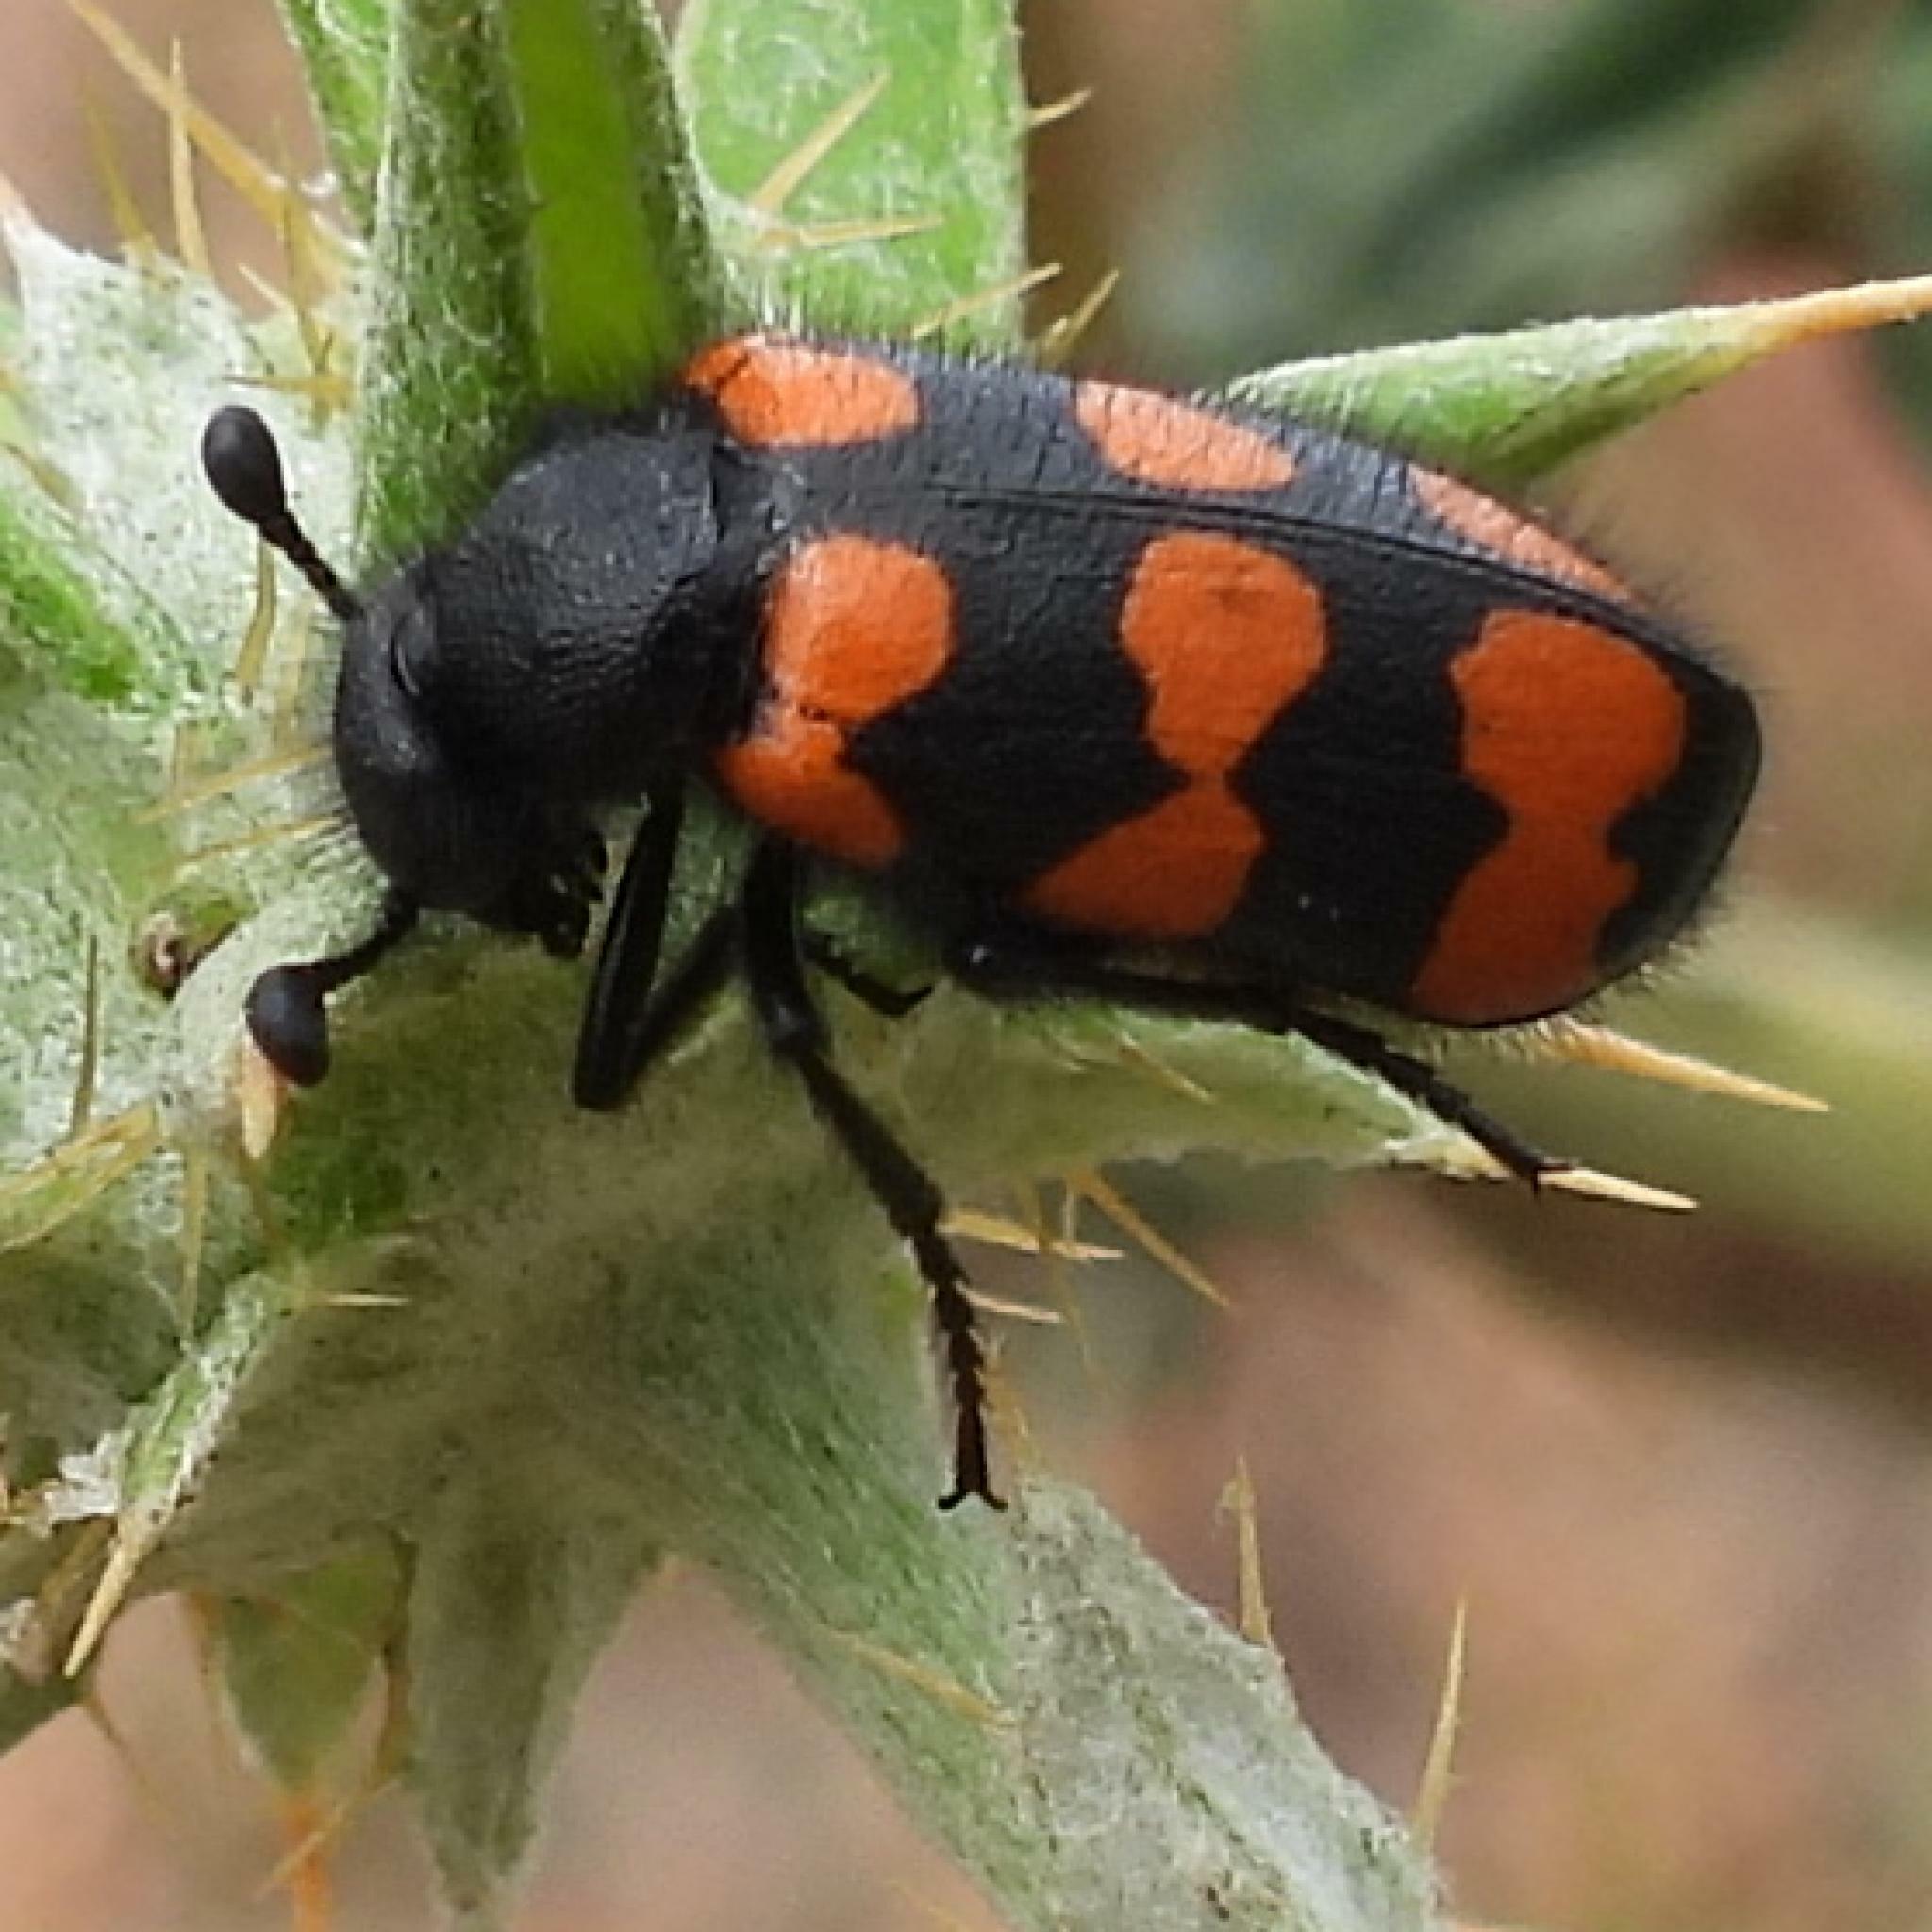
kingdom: Animalia
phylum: Arthropoda
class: Insecta
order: Coleoptera
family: Meloidae
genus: Actenodia
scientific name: Actenodia
